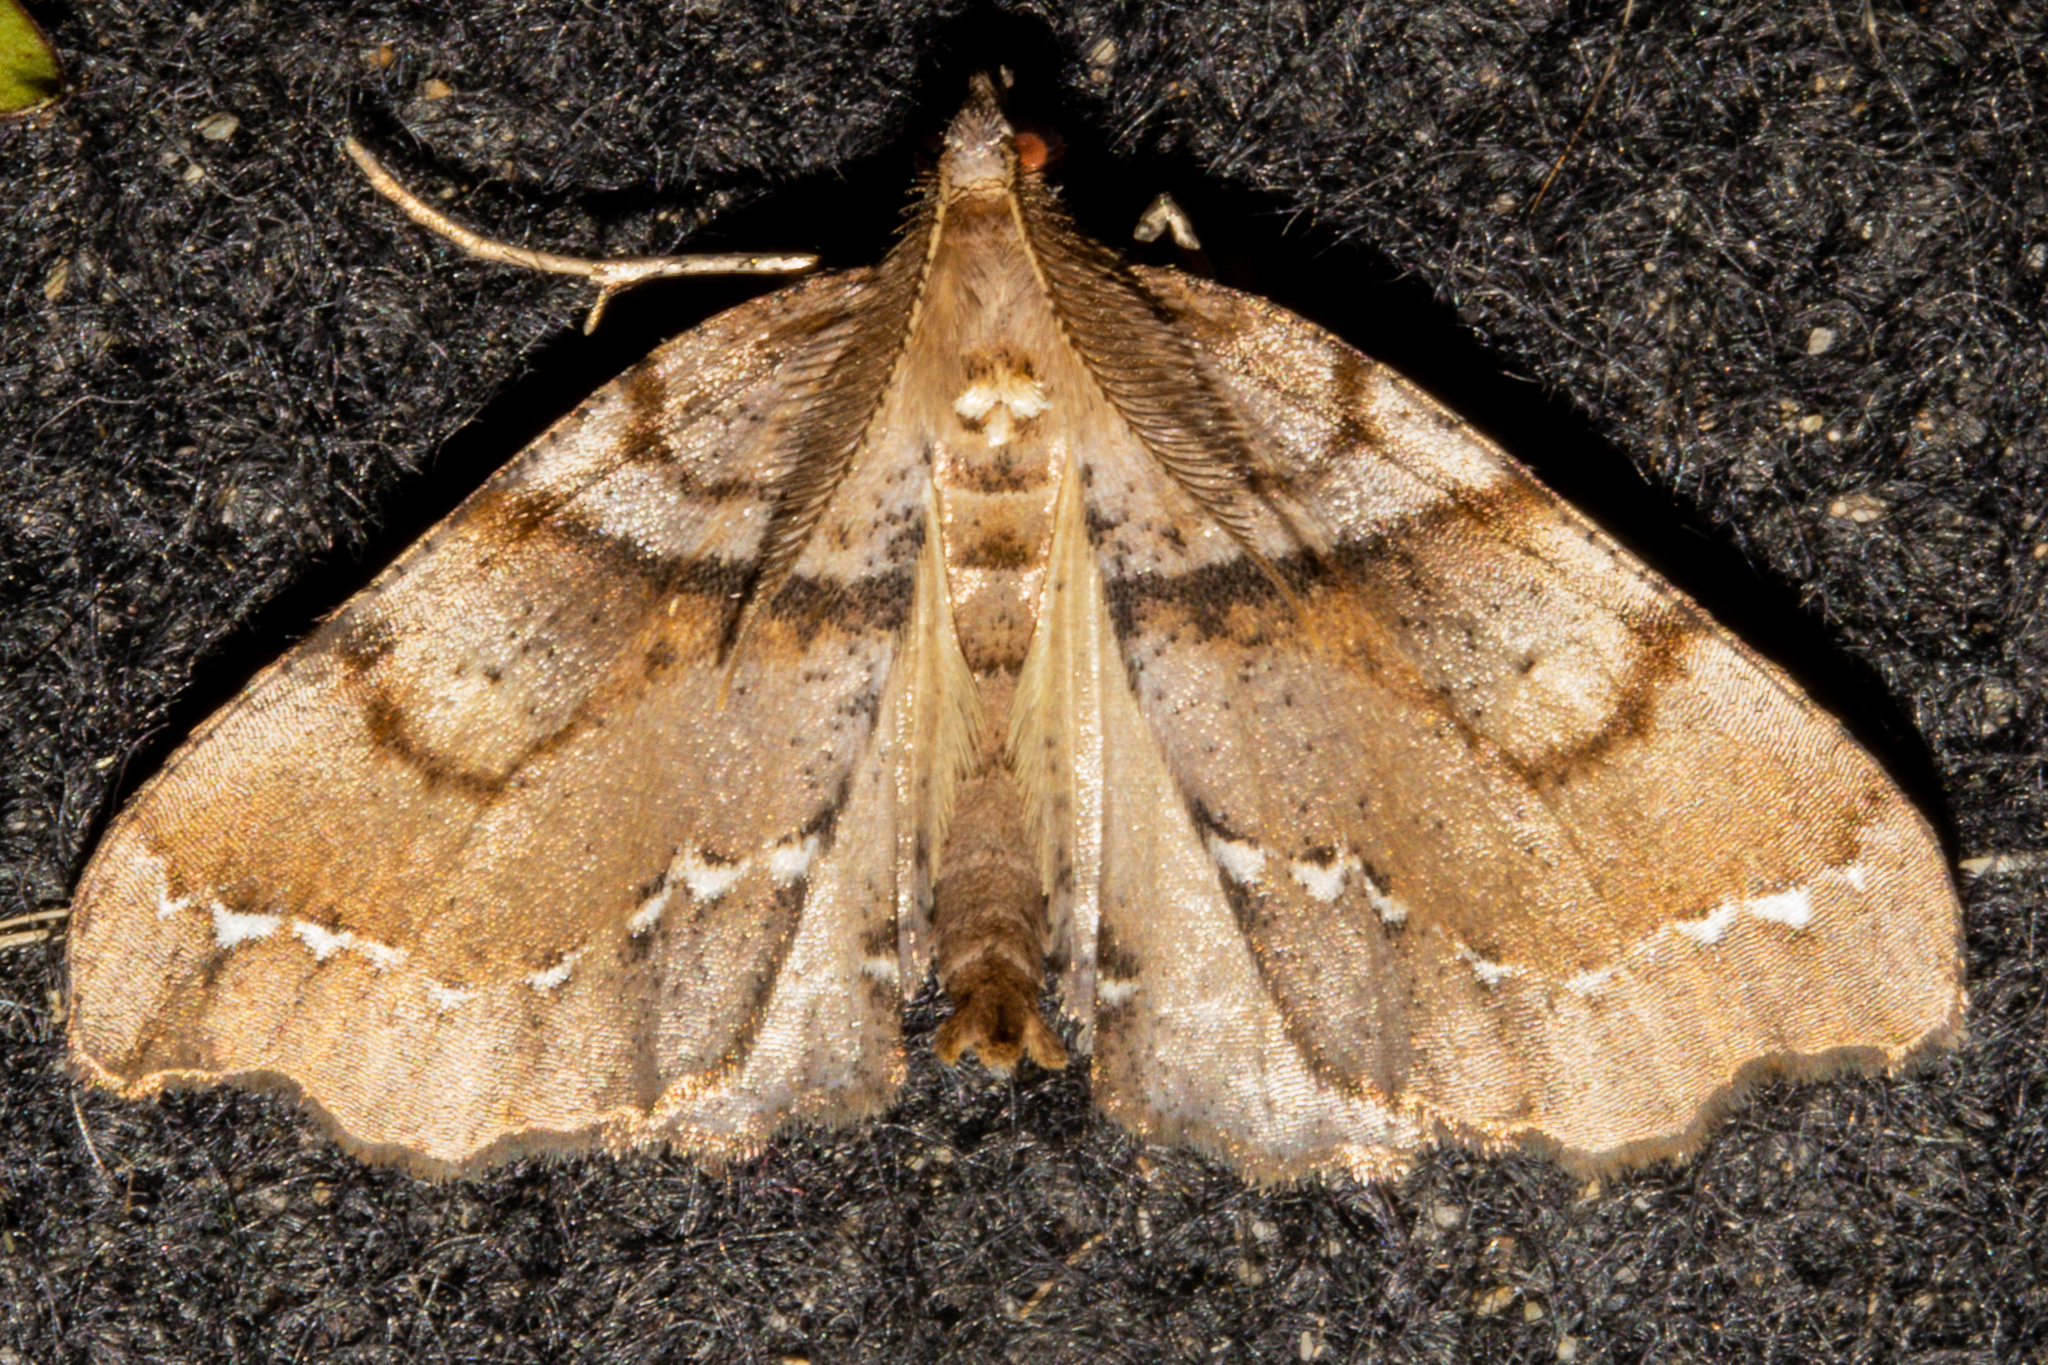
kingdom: Animalia
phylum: Arthropoda
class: Insecta
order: Lepidoptera
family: Geometridae
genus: Chalastra
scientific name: Chalastra pellurgata
